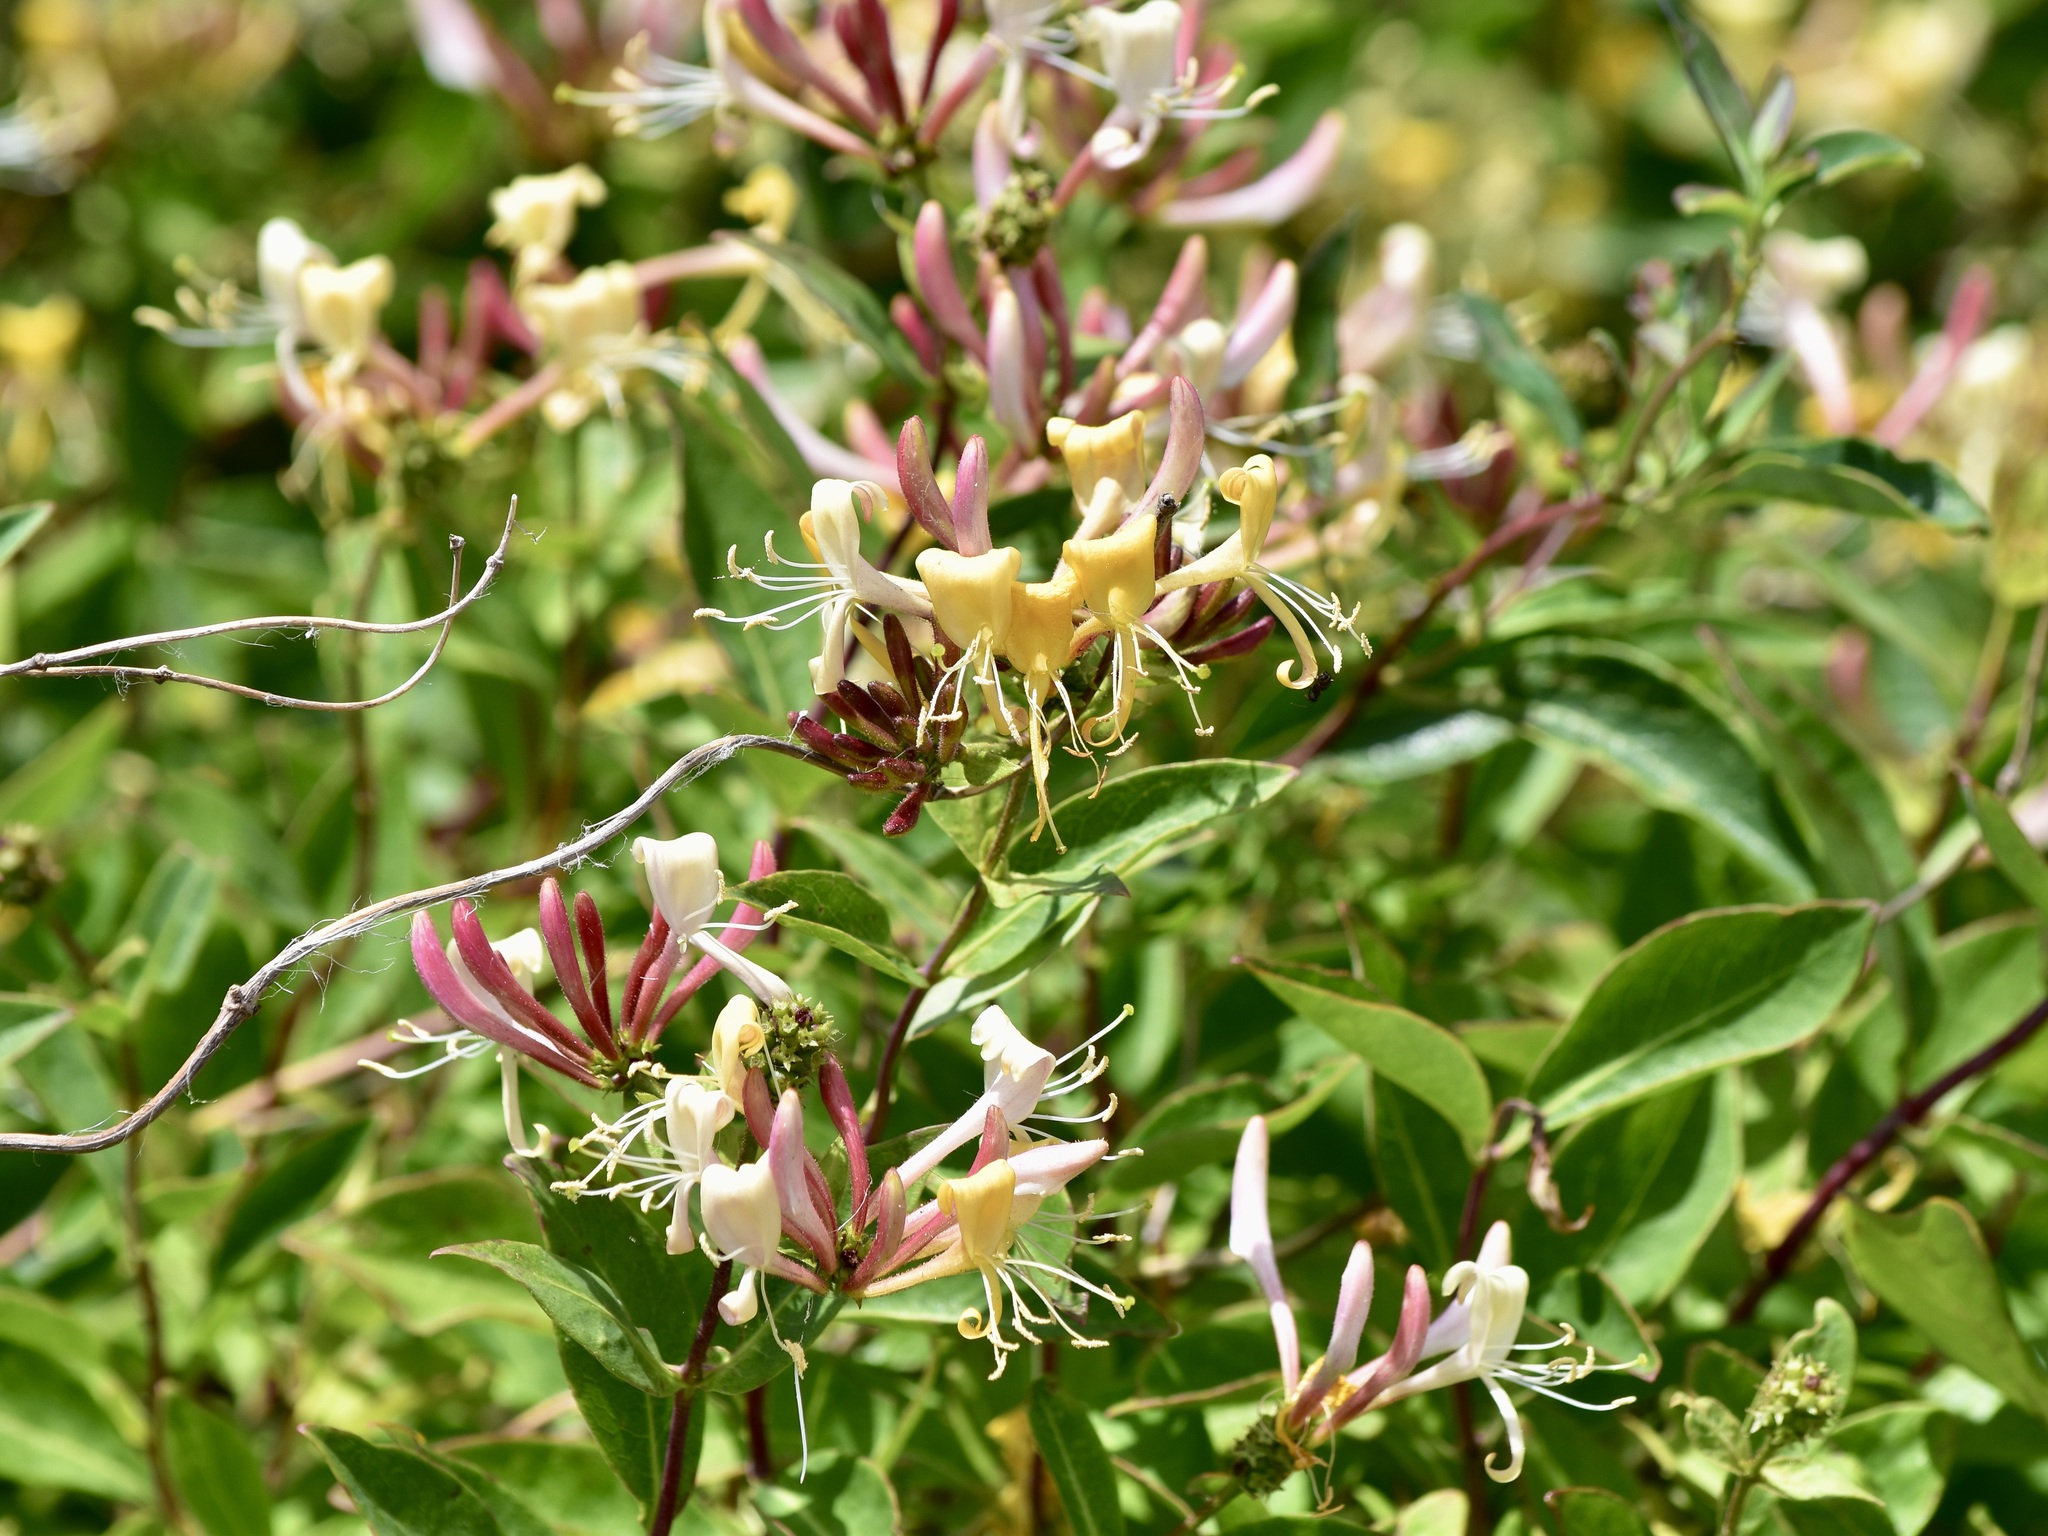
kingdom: Plantae
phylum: Tracheophyta
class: Magnoliopsida
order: Dipsacales
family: Caprifoliaceae
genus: Lonicera
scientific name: Lonicera periclymenum
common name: European honeysuckle
